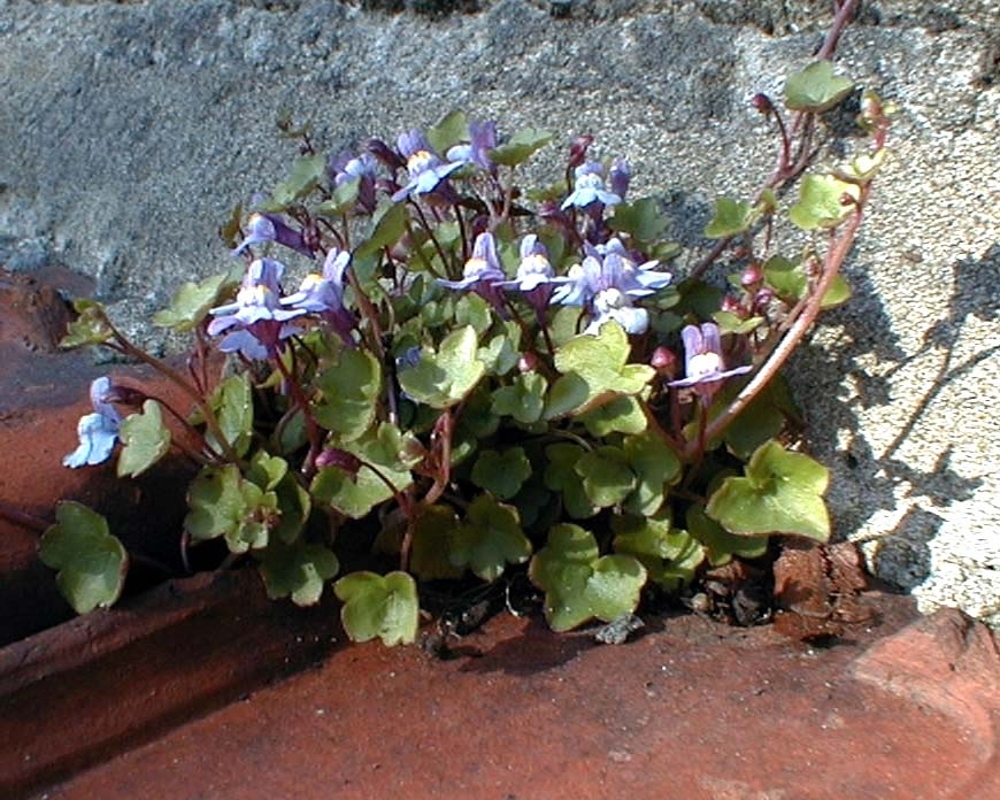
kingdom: Plantae
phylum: Tracheophyta
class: Magnoliopsida
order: Lamiales
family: Plantaginaceae
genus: Cymbalaria
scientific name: Cymbalaria muralis
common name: Ivy-leaved toadflax
